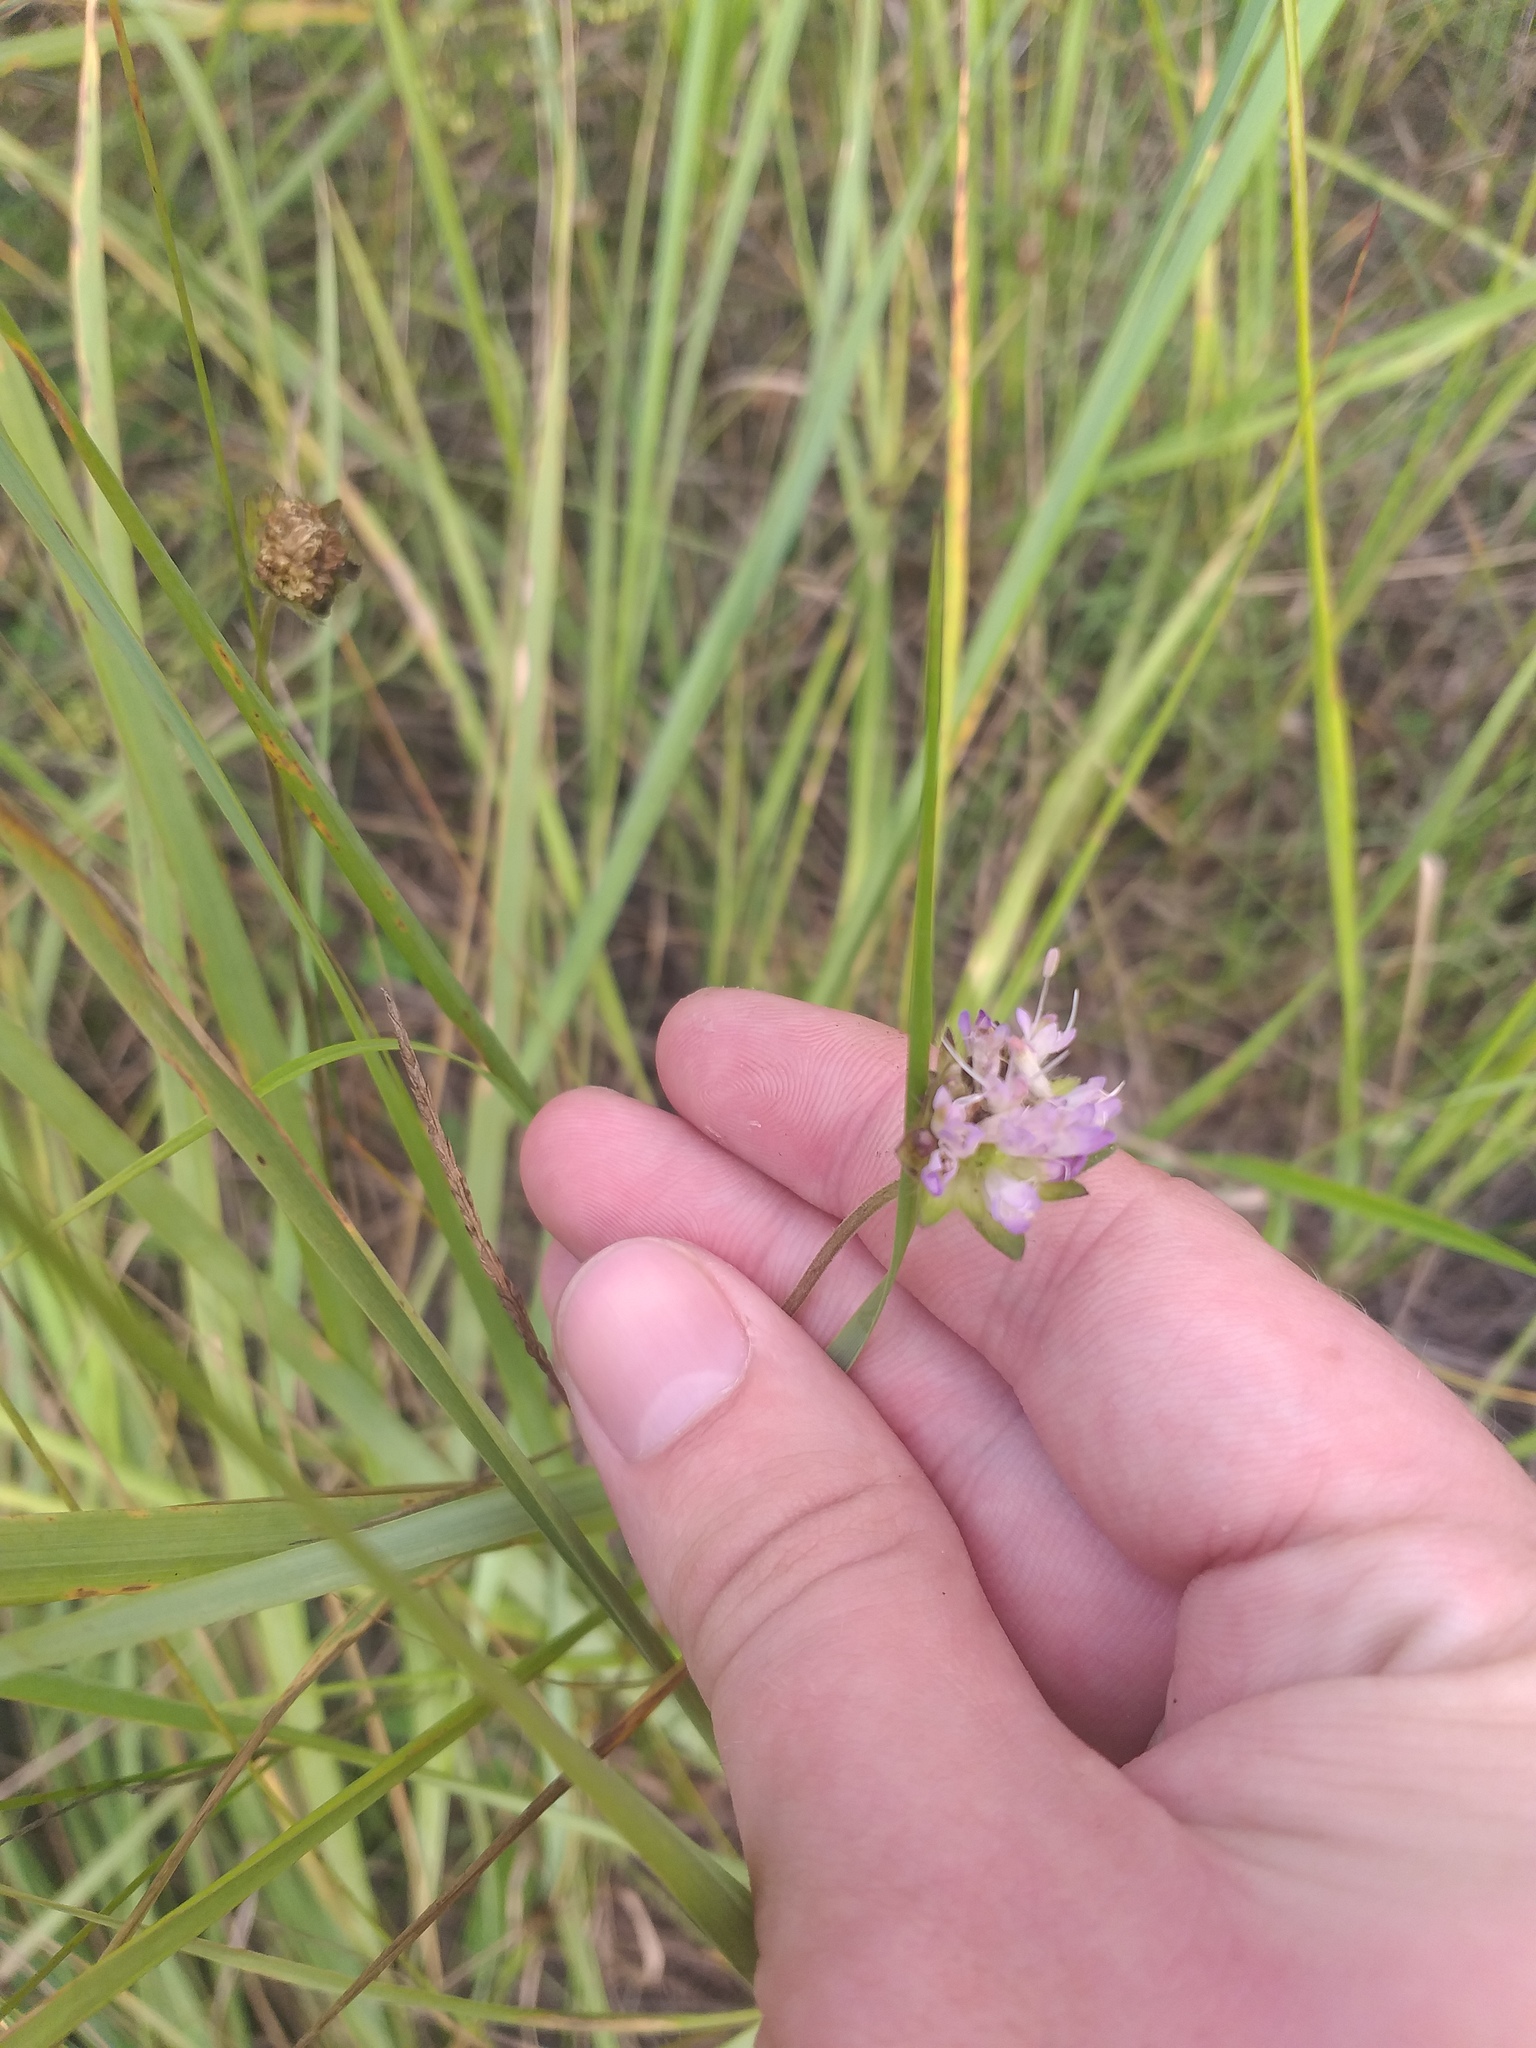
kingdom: Plantae
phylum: Tracheophyta
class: Magnoliopsida
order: Dipsacales
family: Caprifoliaceae
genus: Knautia
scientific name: Knautia arvensis
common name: Field scabiosa
